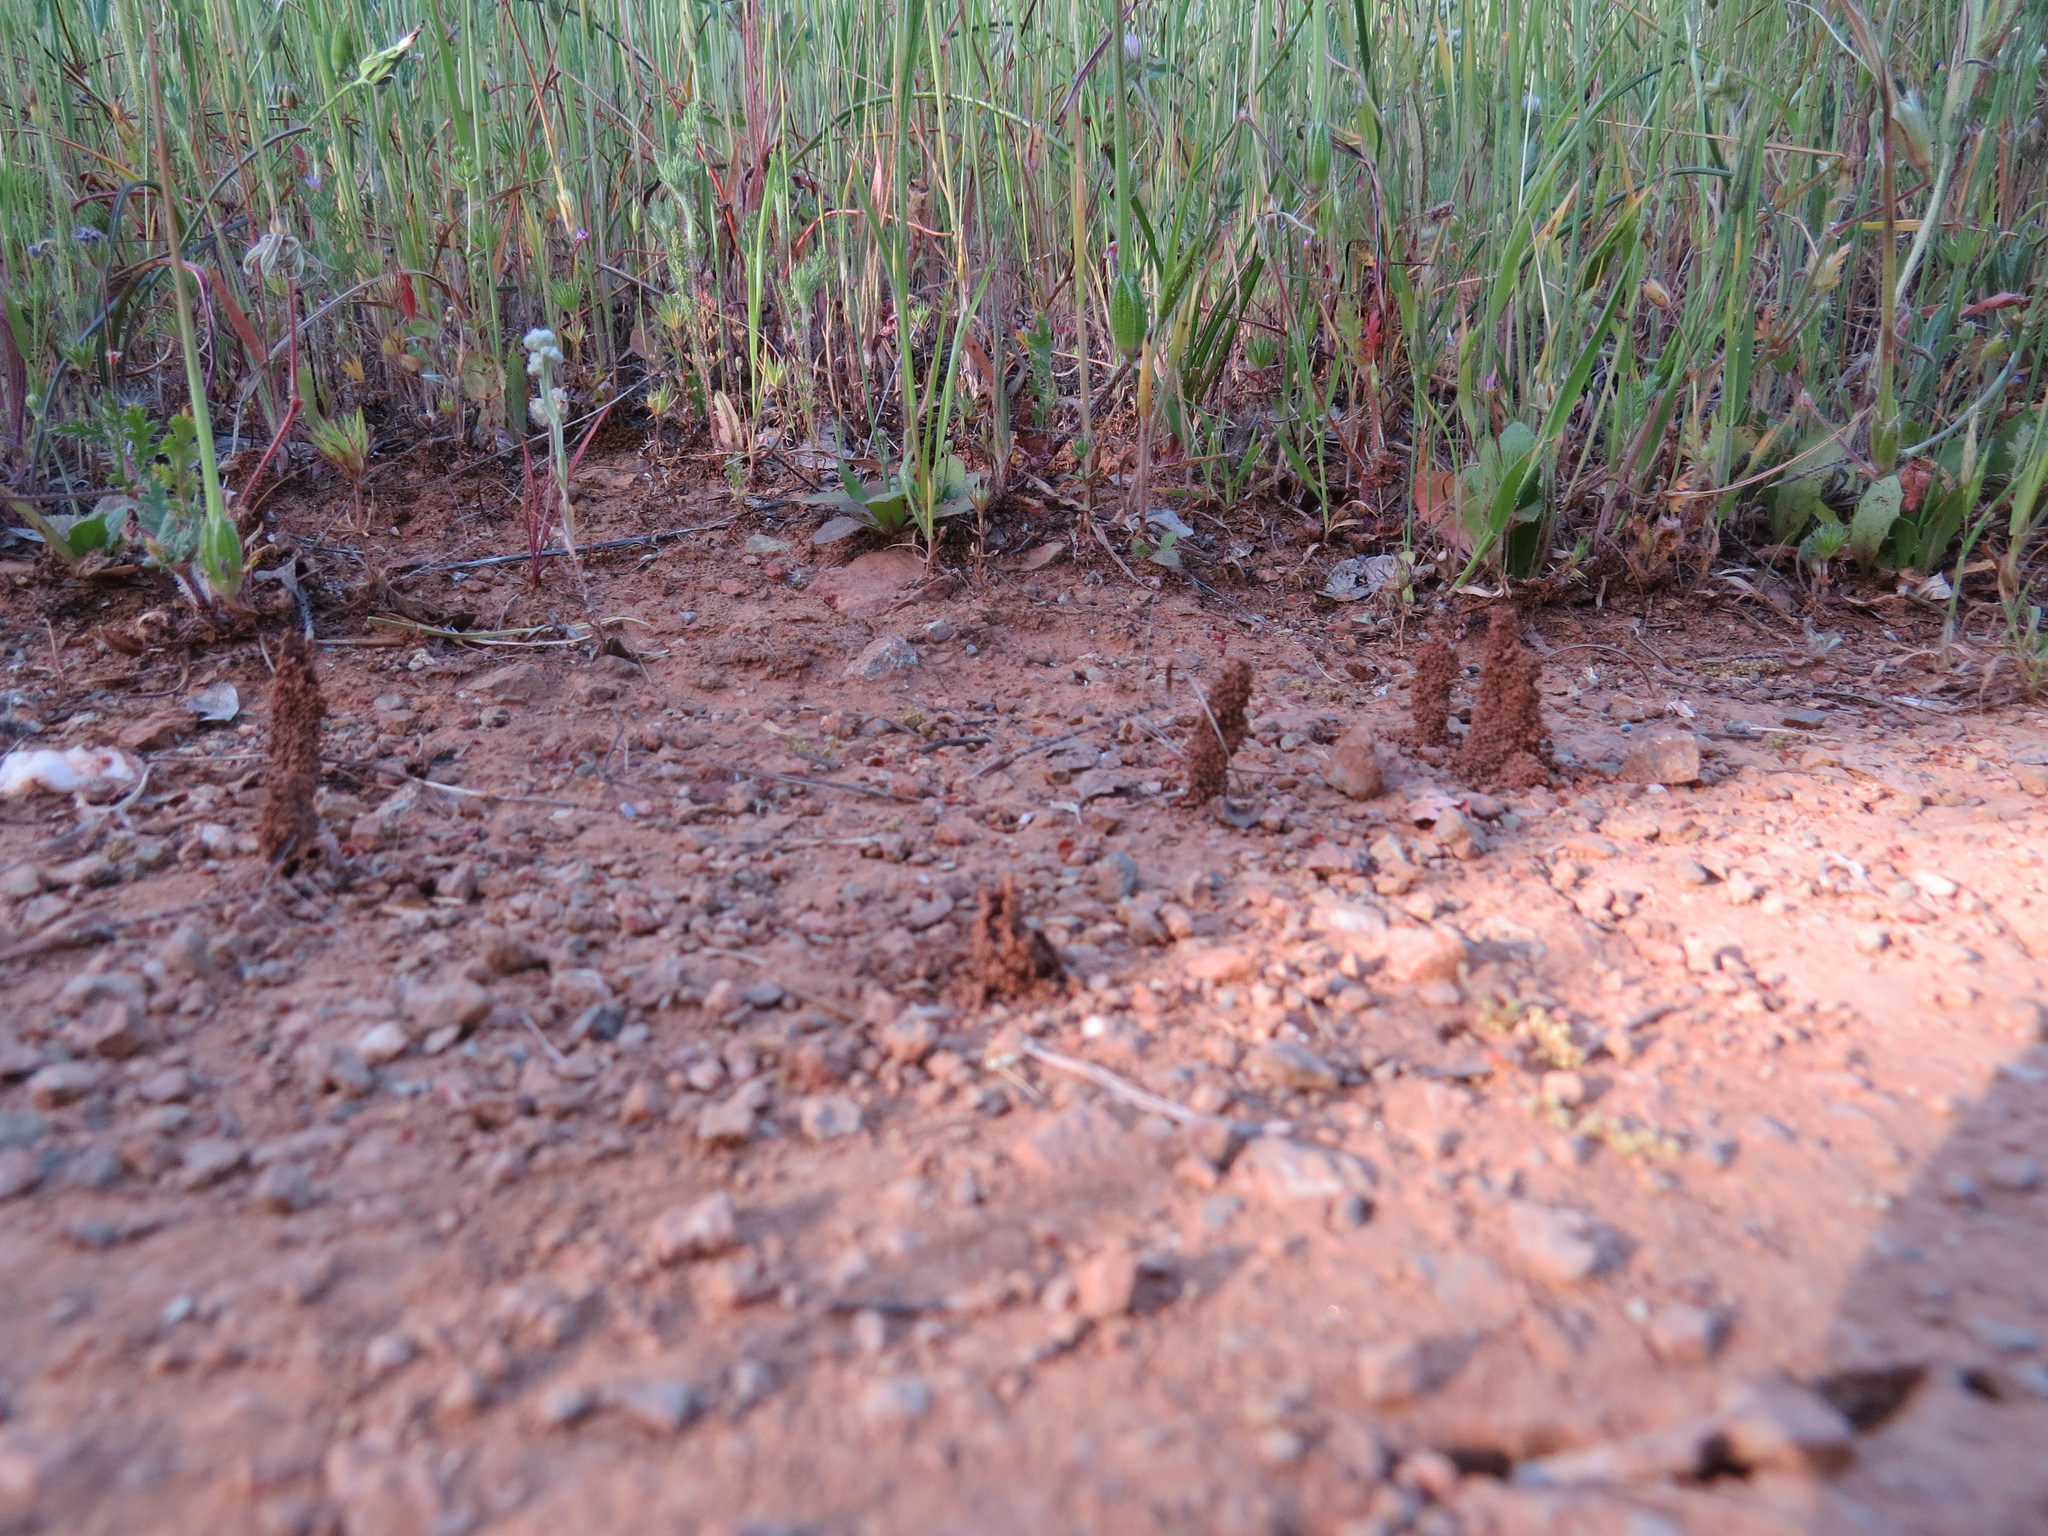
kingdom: Animalia
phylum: Arthropoda
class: Insecta
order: Blattodea
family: Rhinotermitidae
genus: Reticulitermes
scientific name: Reticulitermes hesperus
